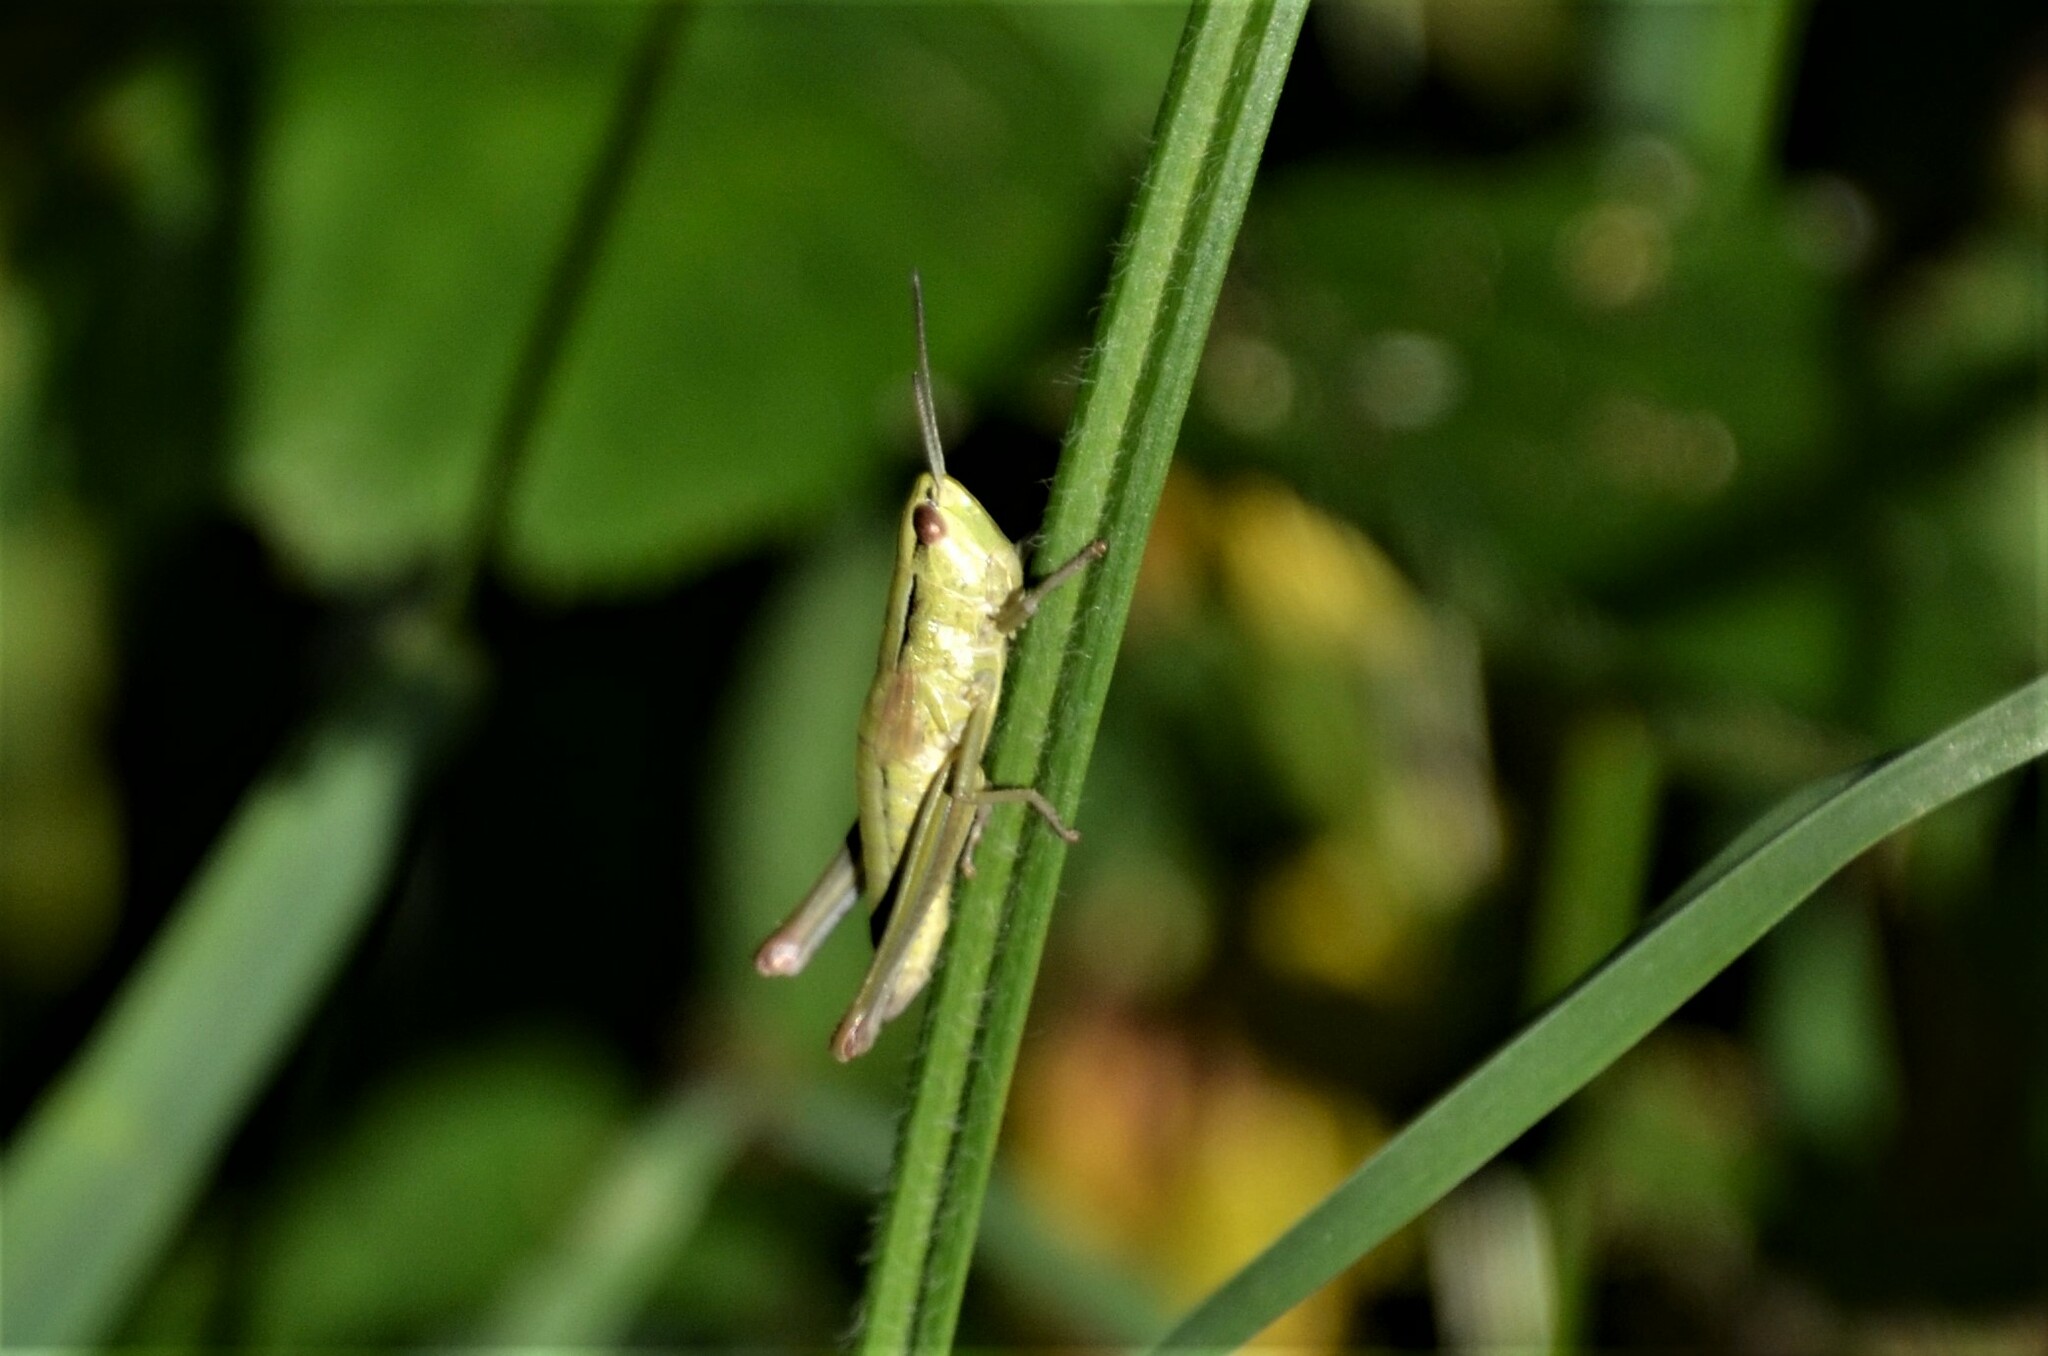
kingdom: Animalia
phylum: Arthropoda
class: Insecta
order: Orthoptera
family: Acrididae
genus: Euthystira
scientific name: Euthystira brachyptera
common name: Small gold grasshopper
